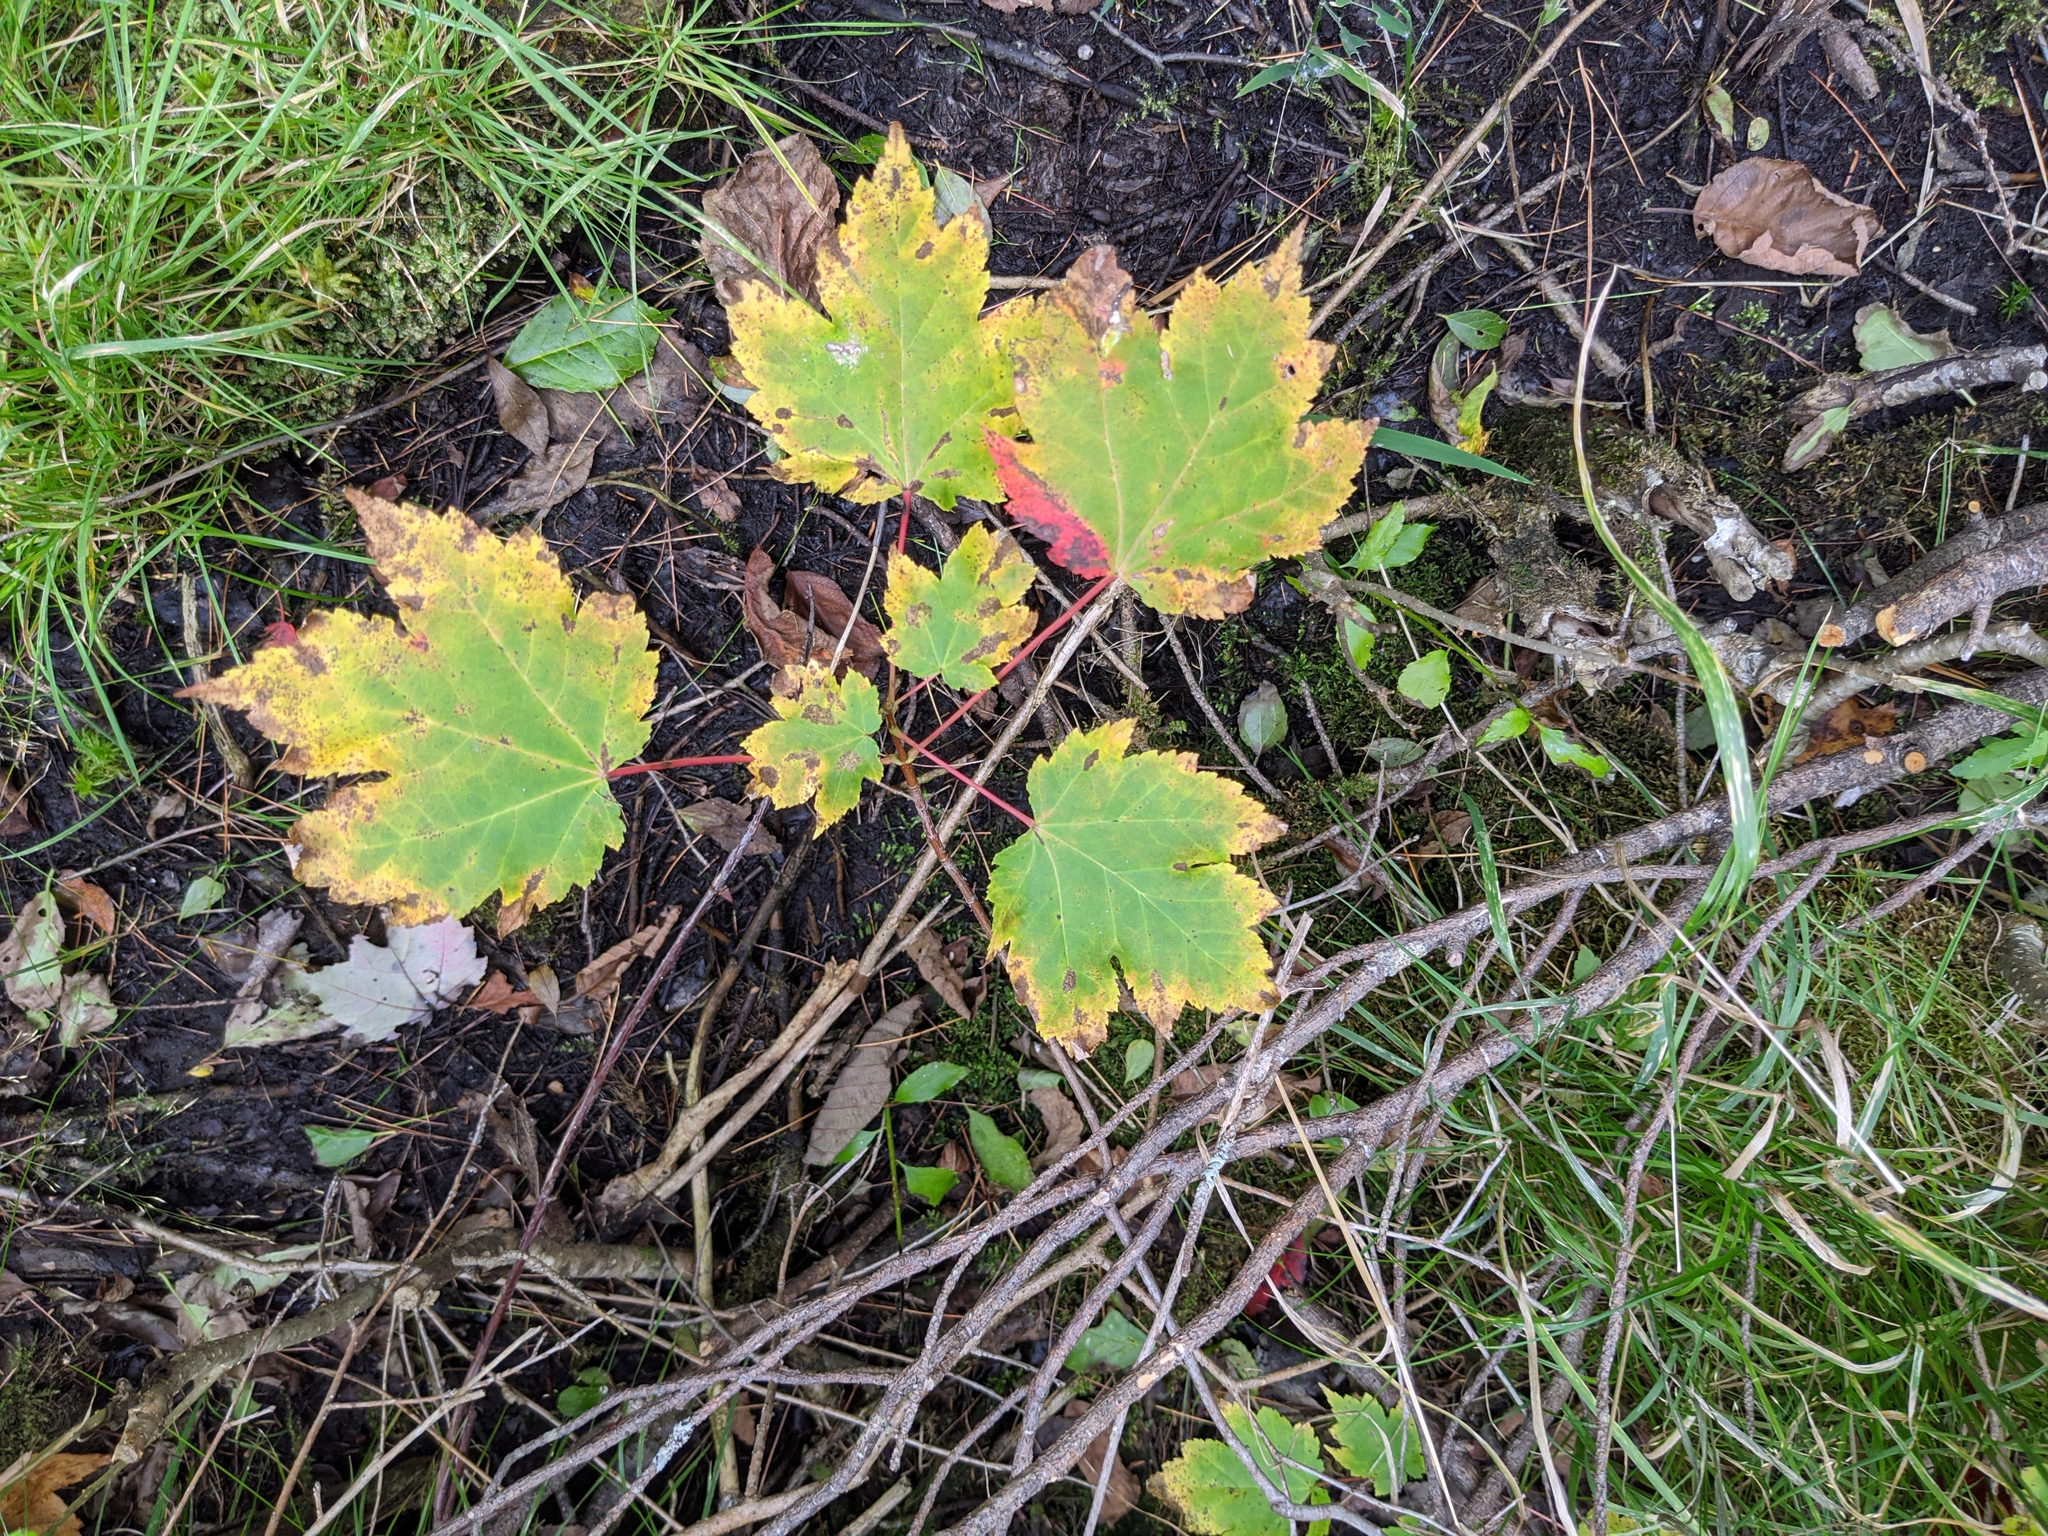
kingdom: Plantae
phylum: Tracheophyta
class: Magnoliopsida
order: Sapindales
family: Sapindaceae
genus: Acer
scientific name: Acer rubrum
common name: Red maple
